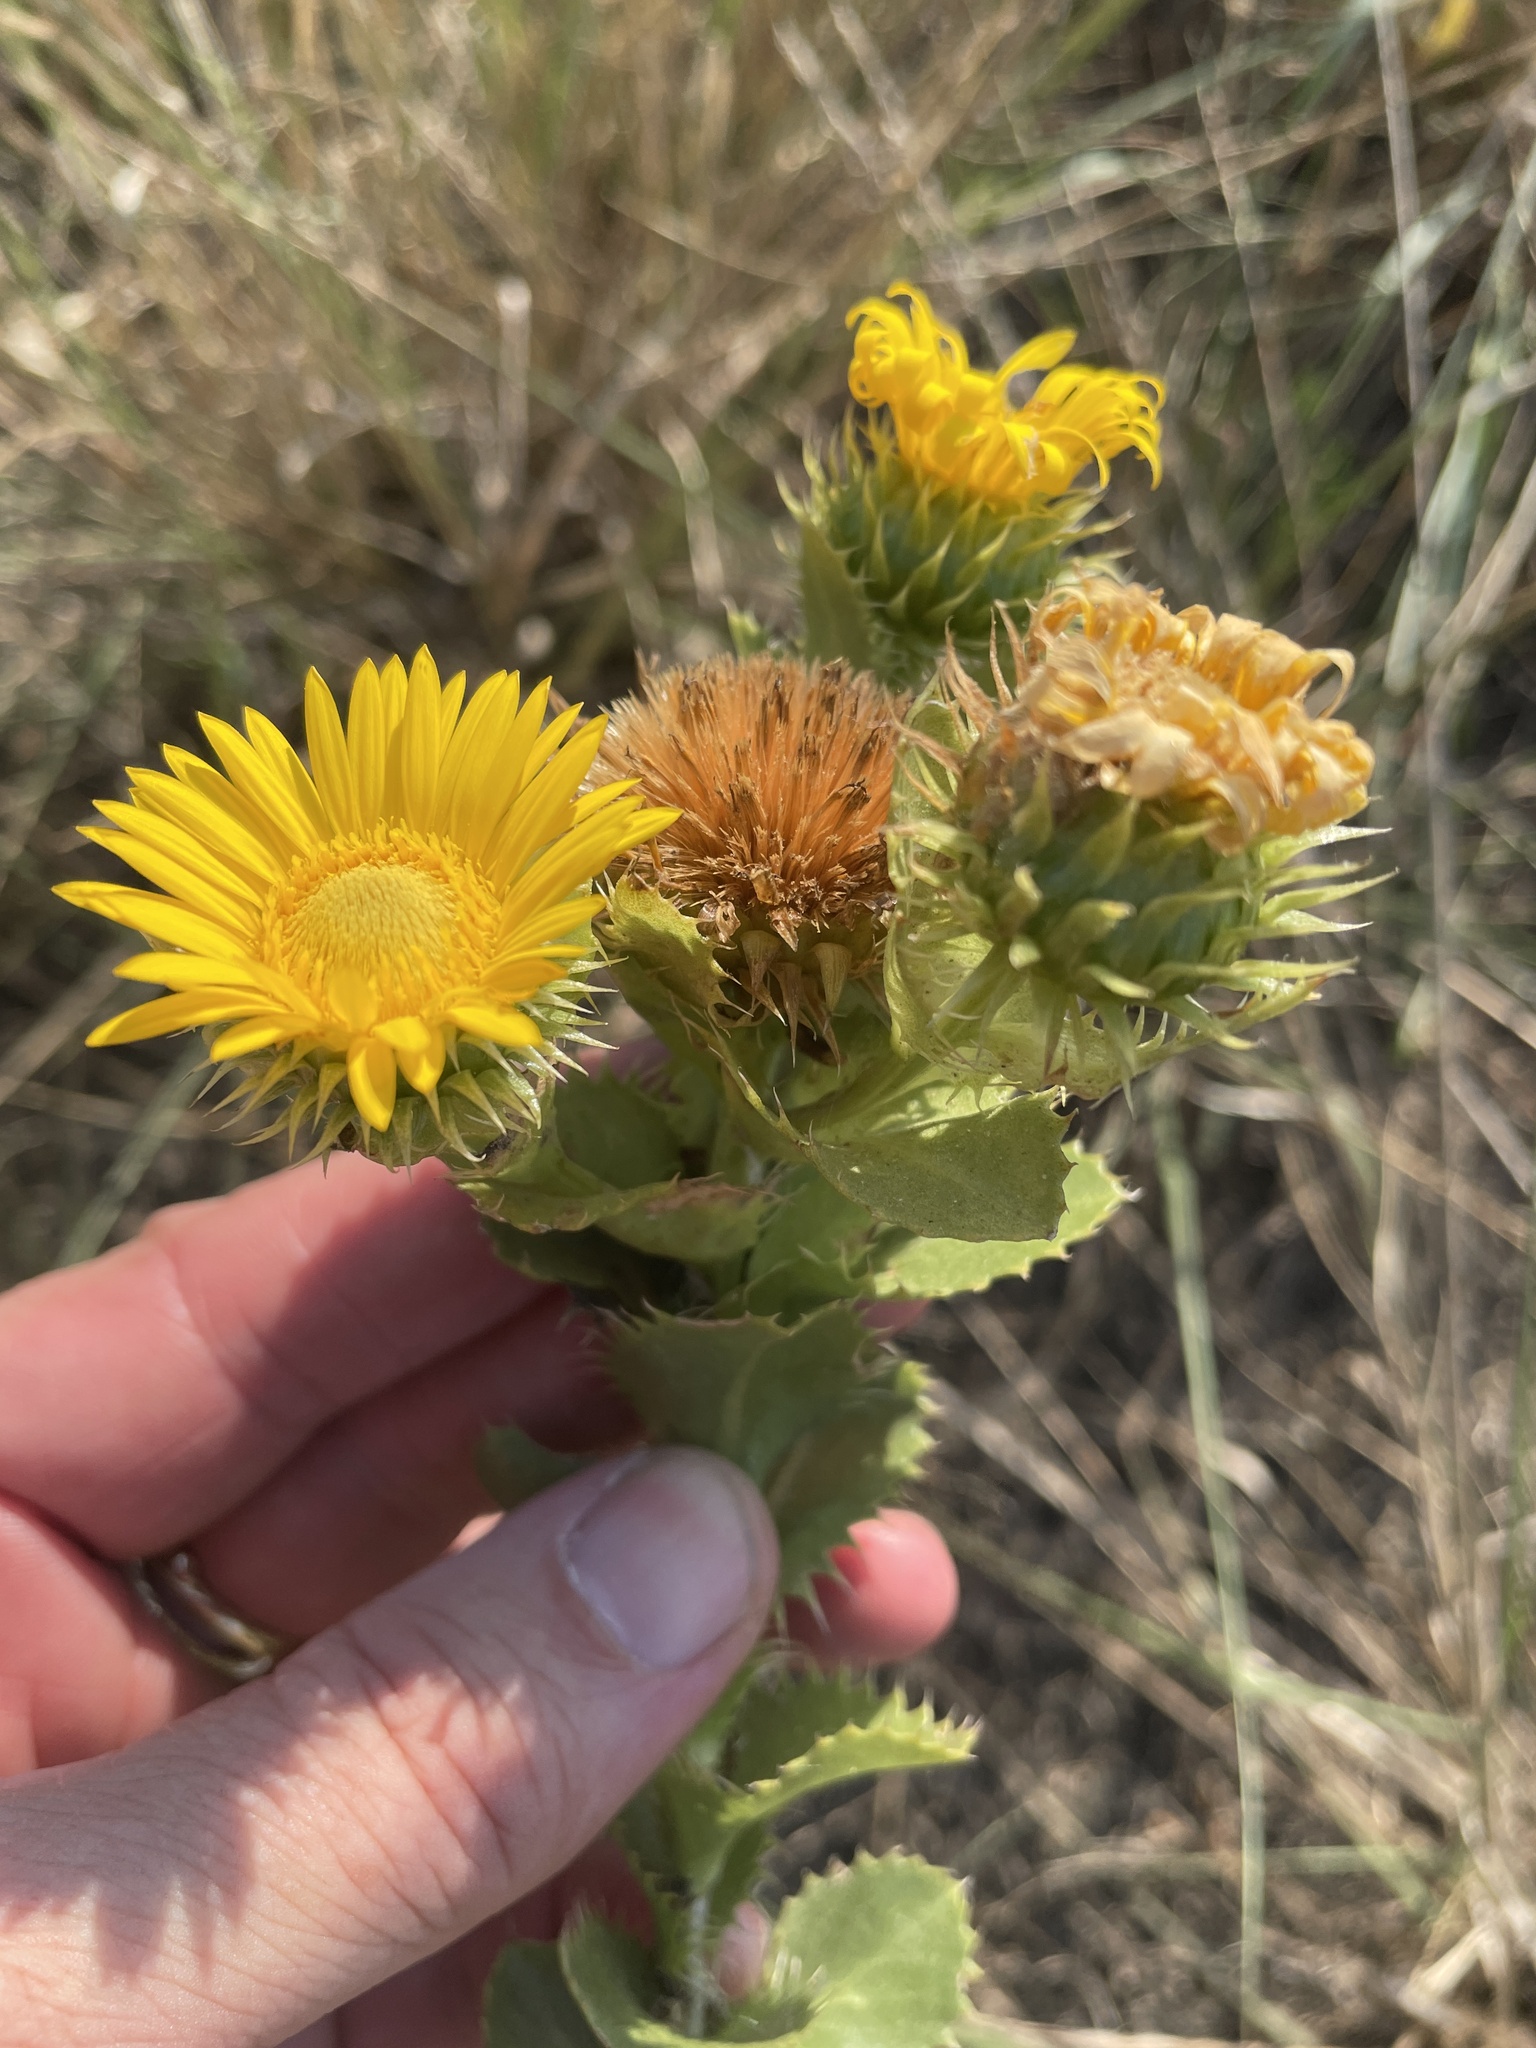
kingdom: Plantae
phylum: Tracheophyta
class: Magnoliopsida
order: Asterales
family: Asteraceae
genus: Grindelia
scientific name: Grindelia ciliata
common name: Goldenweed
